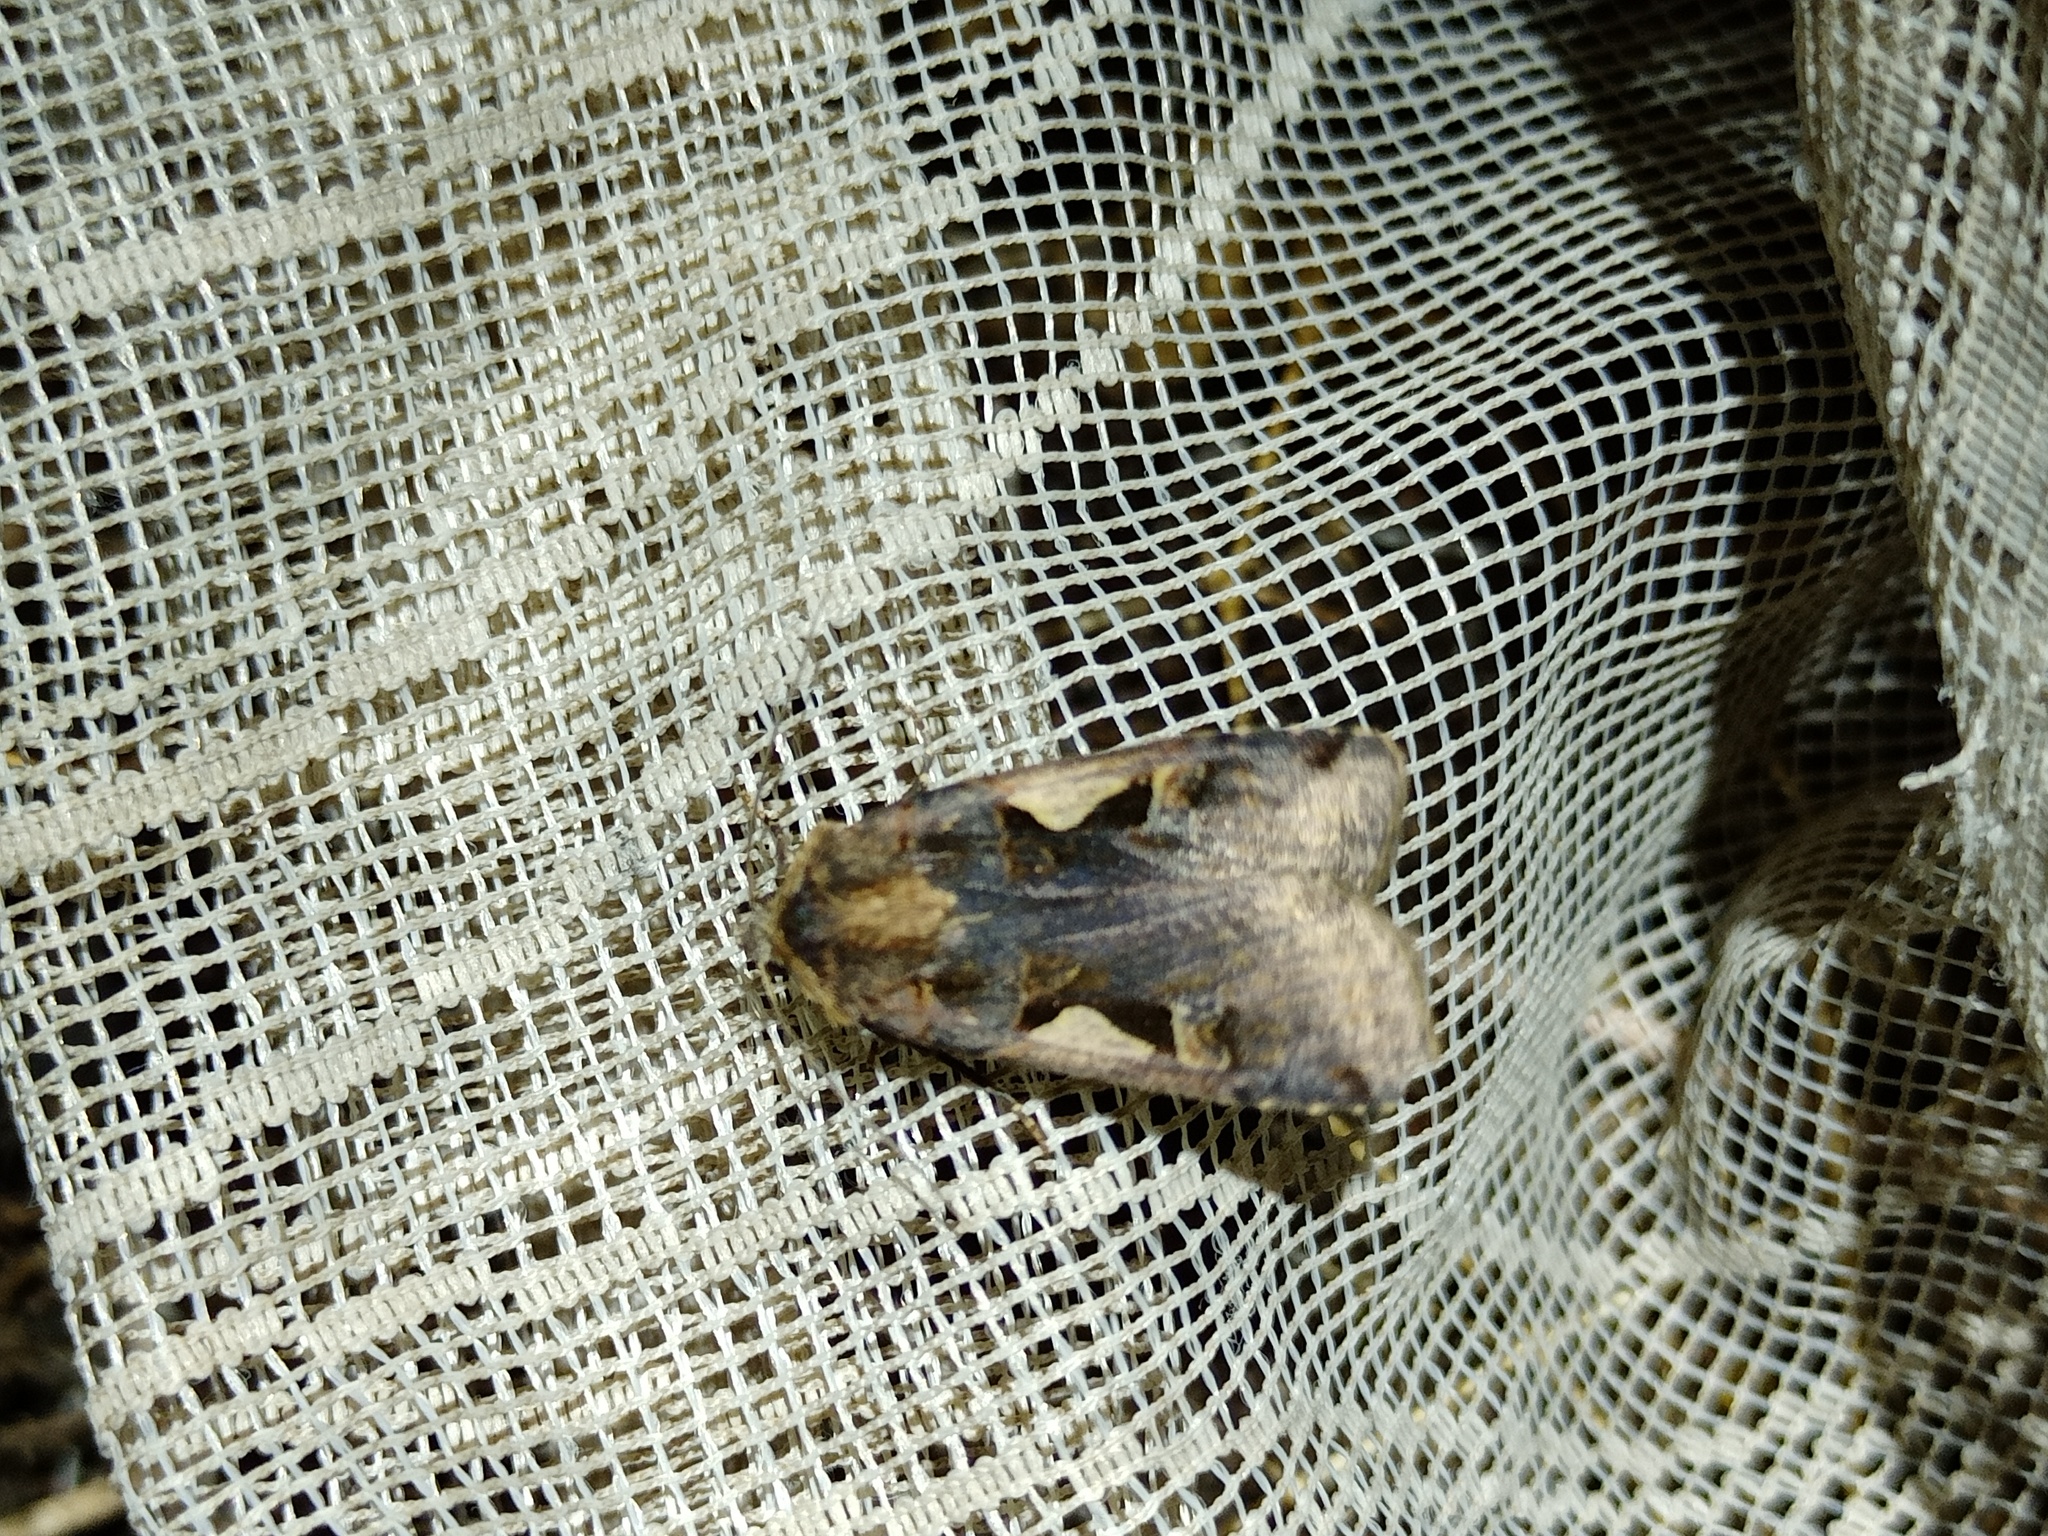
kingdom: Animalia
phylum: Arthropoda
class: Insecta
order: Lepidoptera
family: Noctuidae
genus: Xestia
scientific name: Xestia c-nigrum
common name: Setaceous hebrew character
